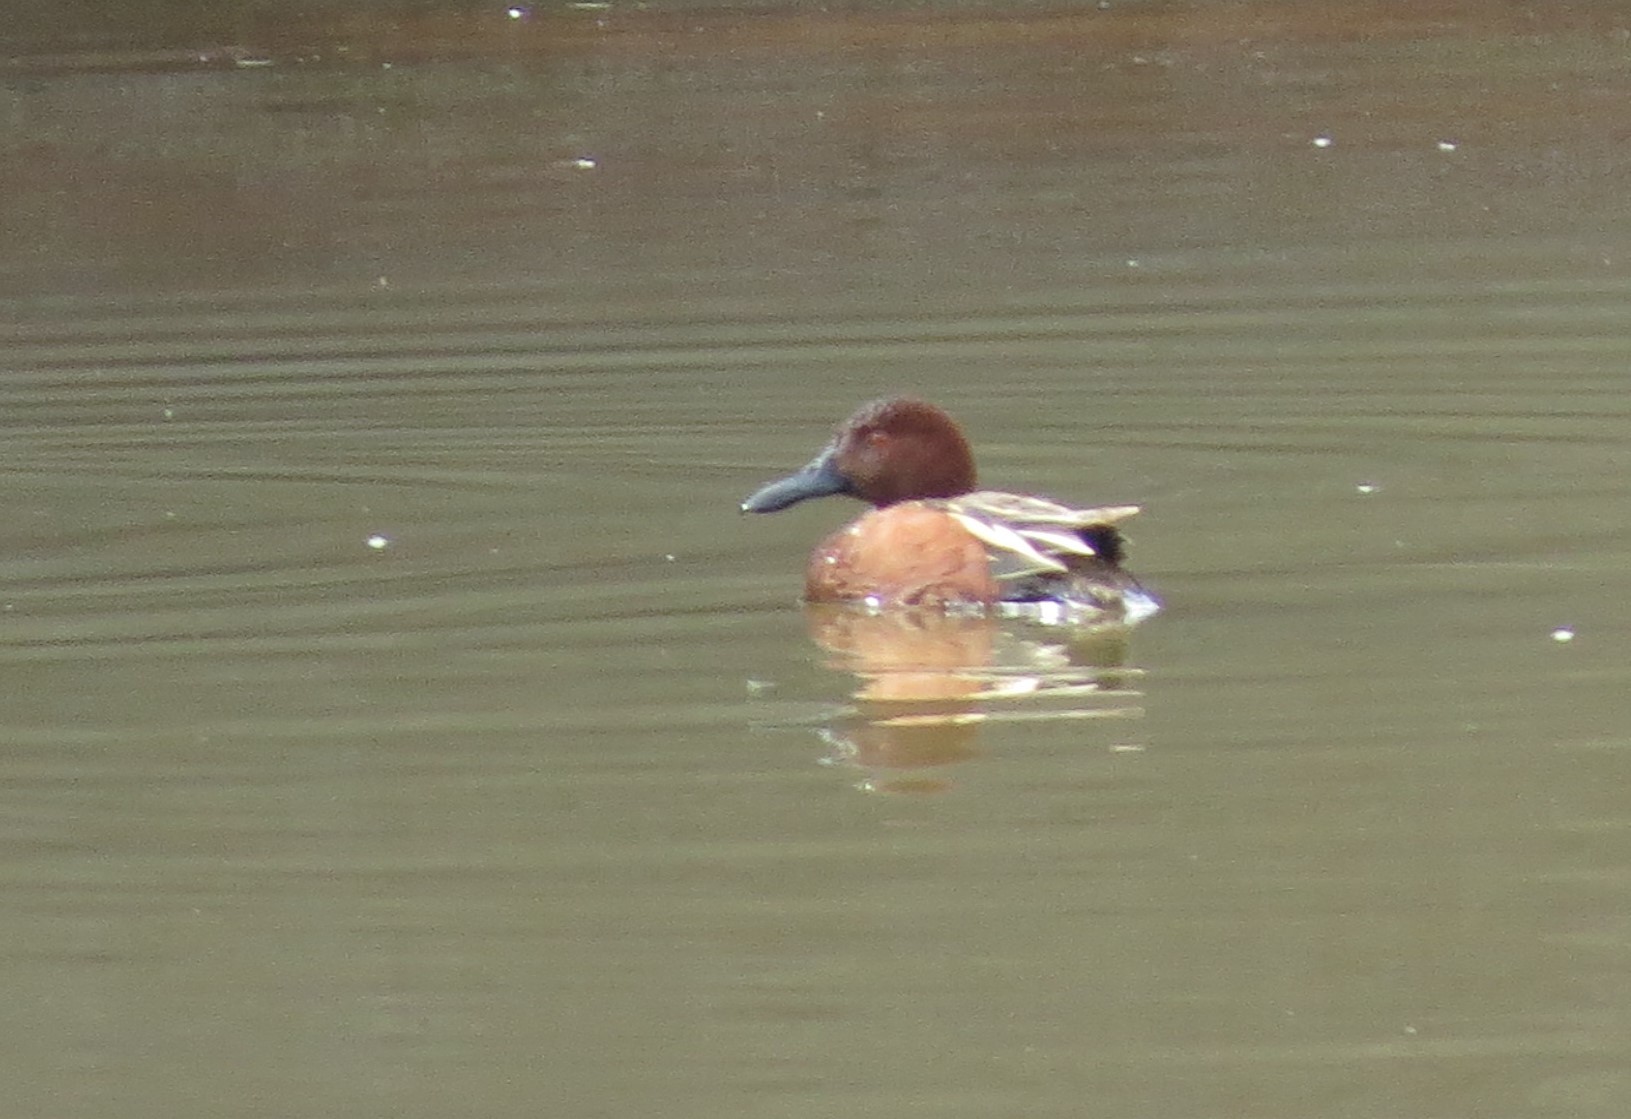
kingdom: Animalia
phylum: Chordata
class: Aves
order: Anseriformes
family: Anatidae
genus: Spatula
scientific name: Spatula cyanoptera
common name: Cinnamon teal
